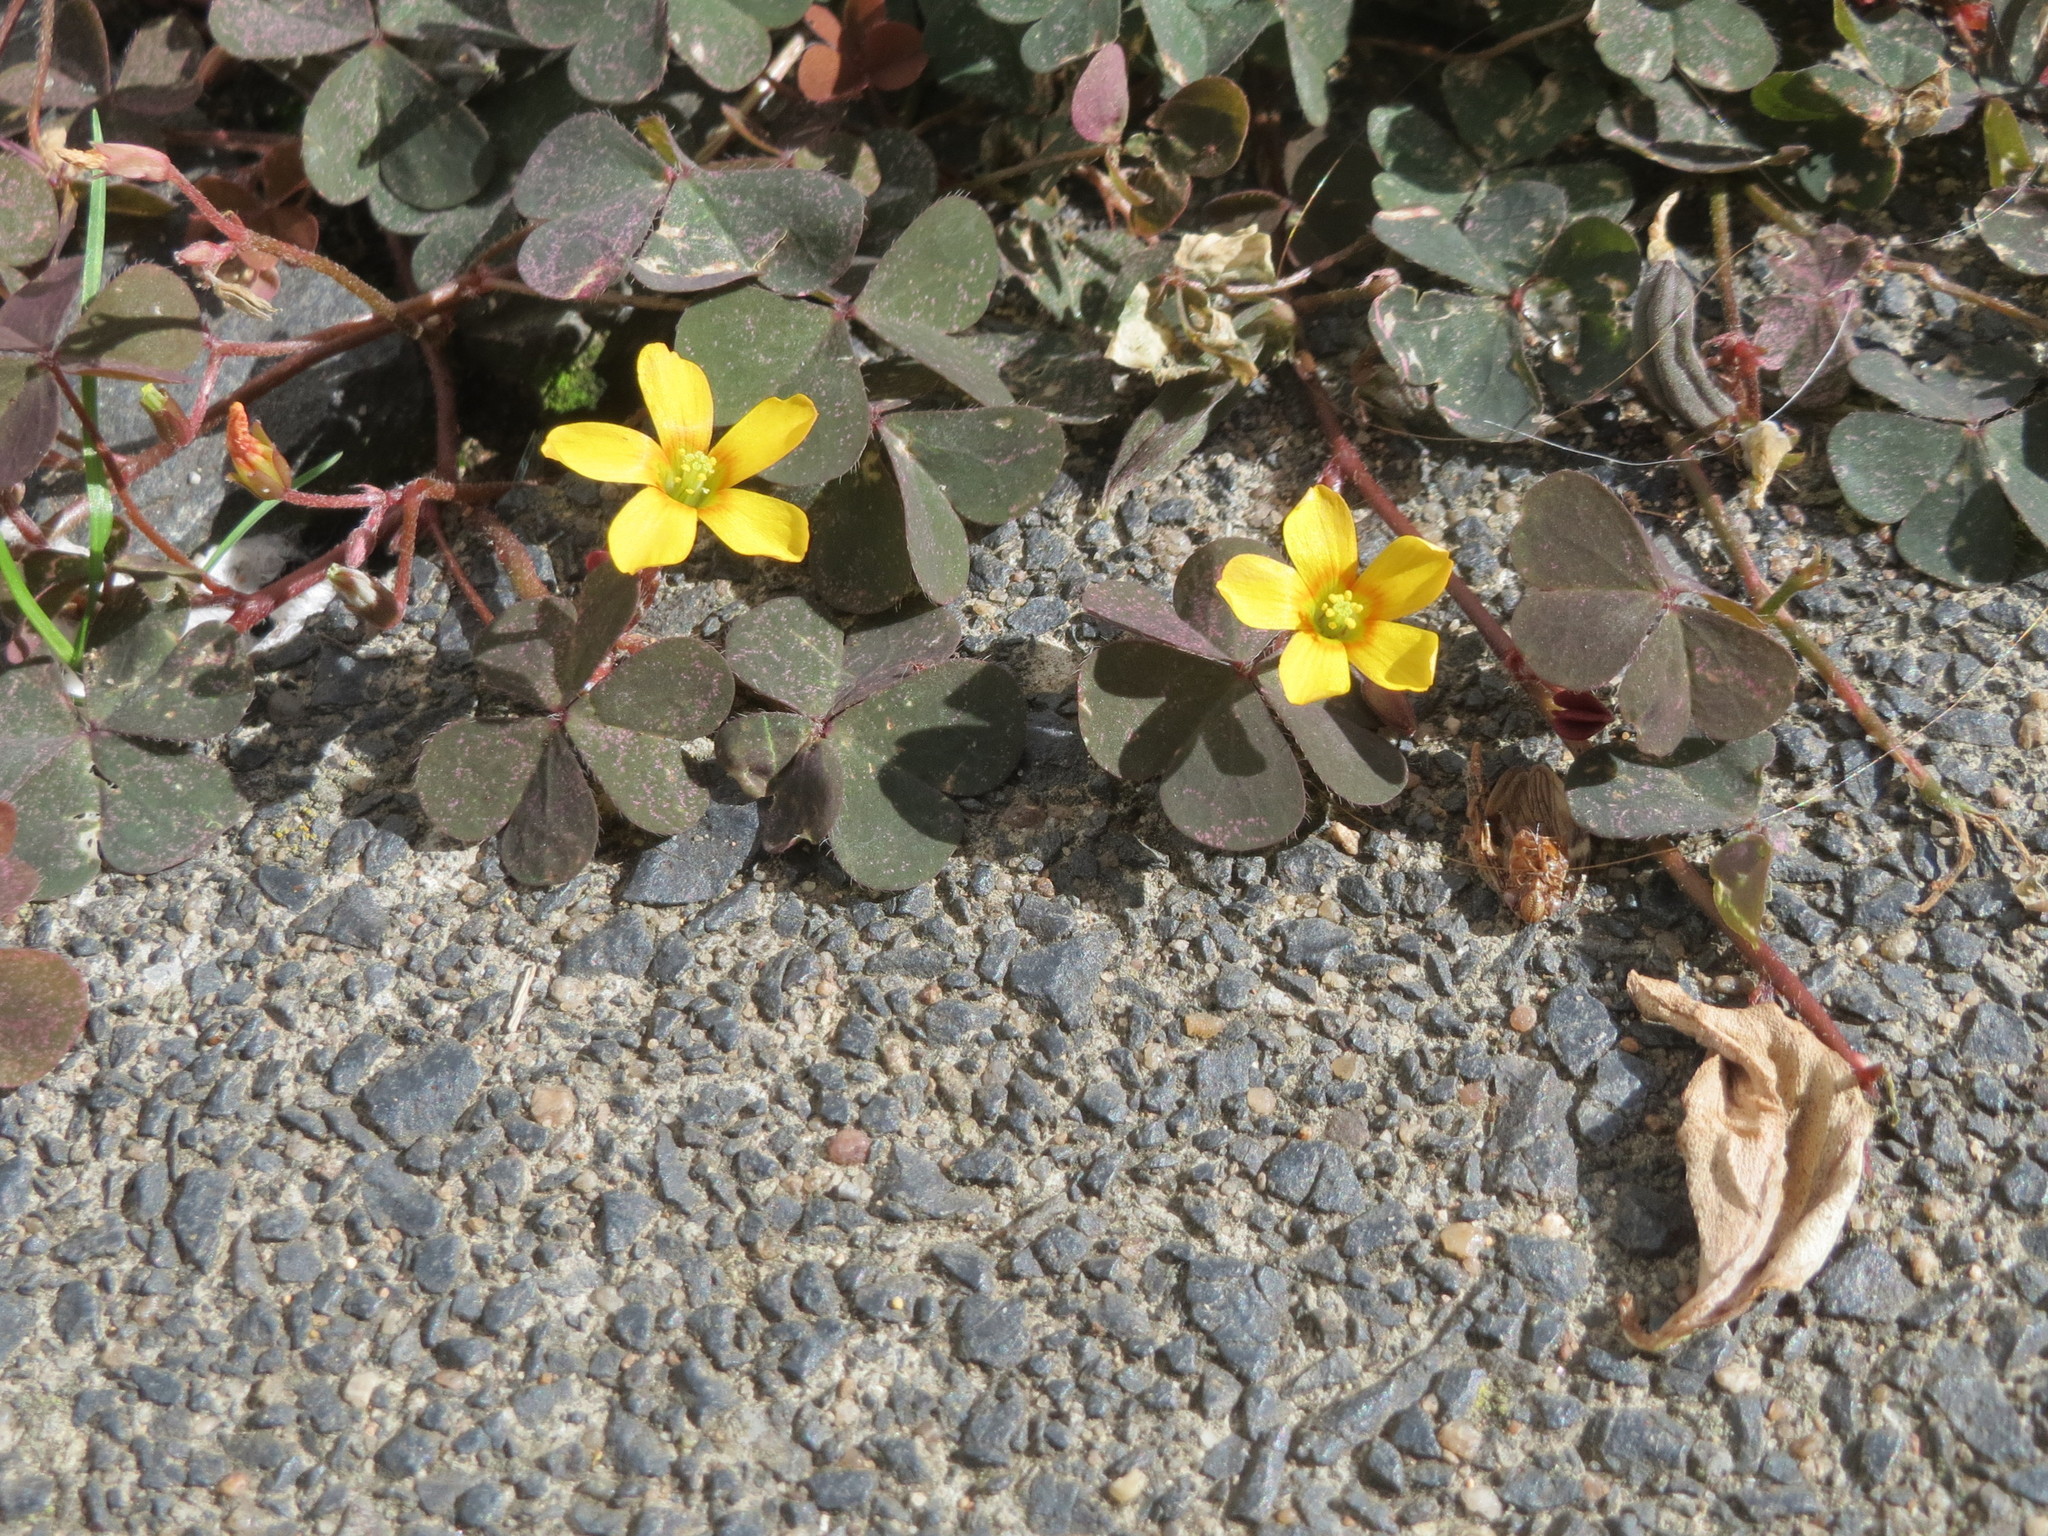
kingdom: Plantae
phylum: Tracheophyta
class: Magnoliopsida
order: Oxalidales
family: Oxalidaceae
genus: Oxalis
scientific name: Oxalis corniculata
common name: Procumbent yellow-sorrel
